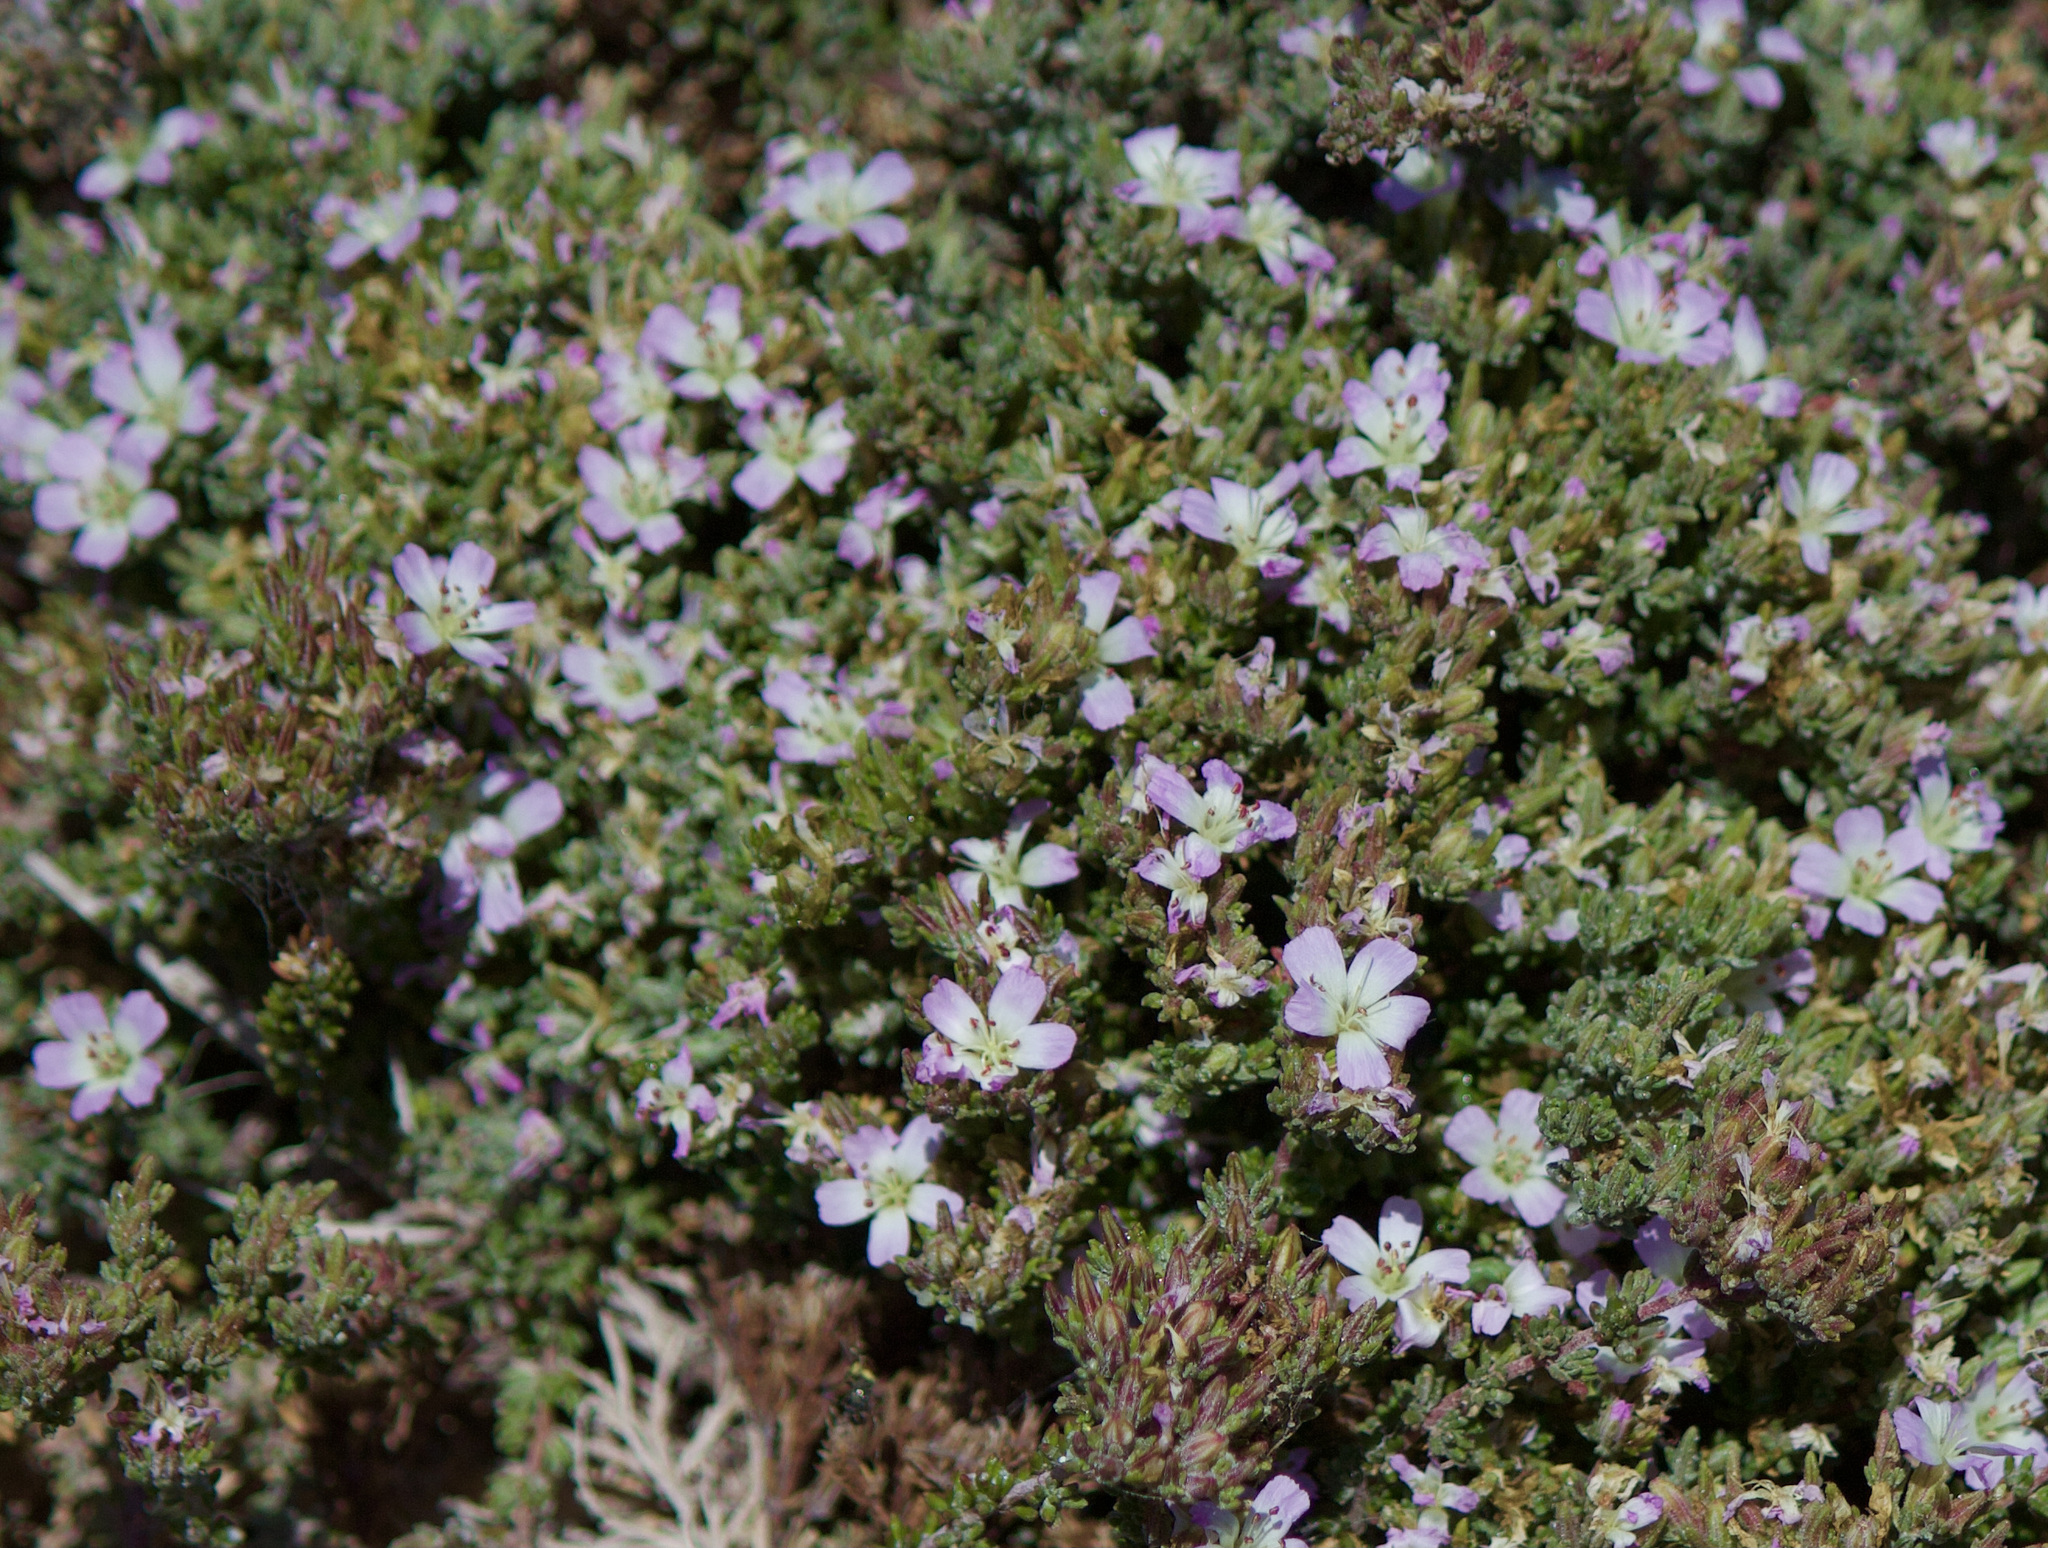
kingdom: Plantae
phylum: Tracheophyta
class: Magnoliopsida
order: Caryophyllales
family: Frankeniaceae
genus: Frankenia
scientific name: Frankenia chilensis
